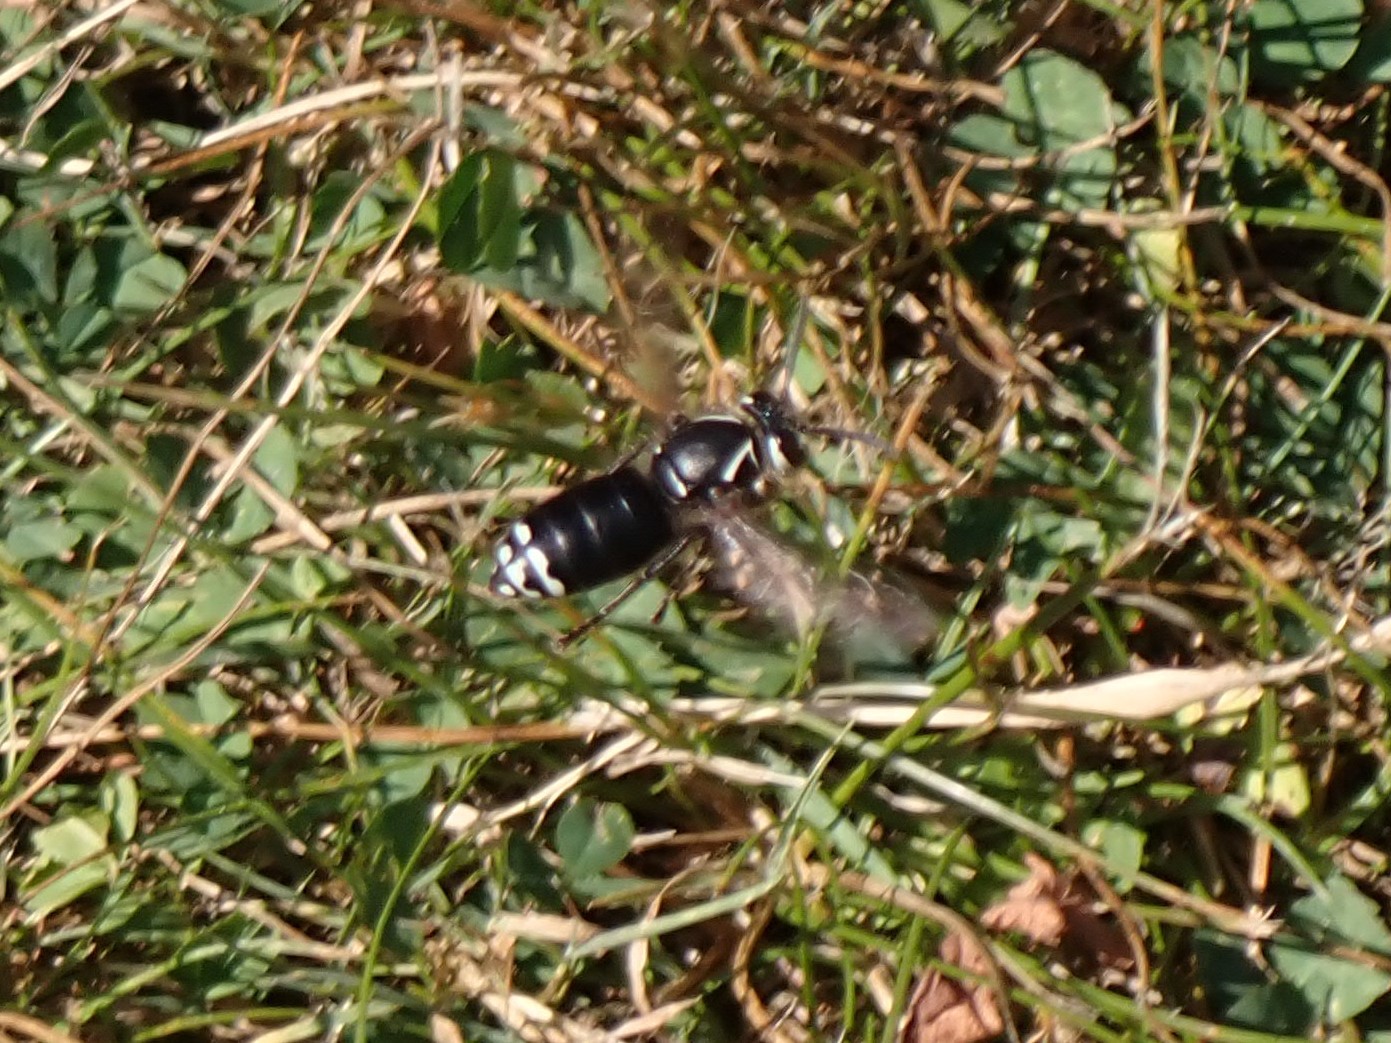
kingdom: Animalia
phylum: Arthropoda
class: Insecta
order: Hymenoptera
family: Vespidae
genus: Dolichovespula
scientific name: Dolichovespula maculata
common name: Bald-faced hornet
